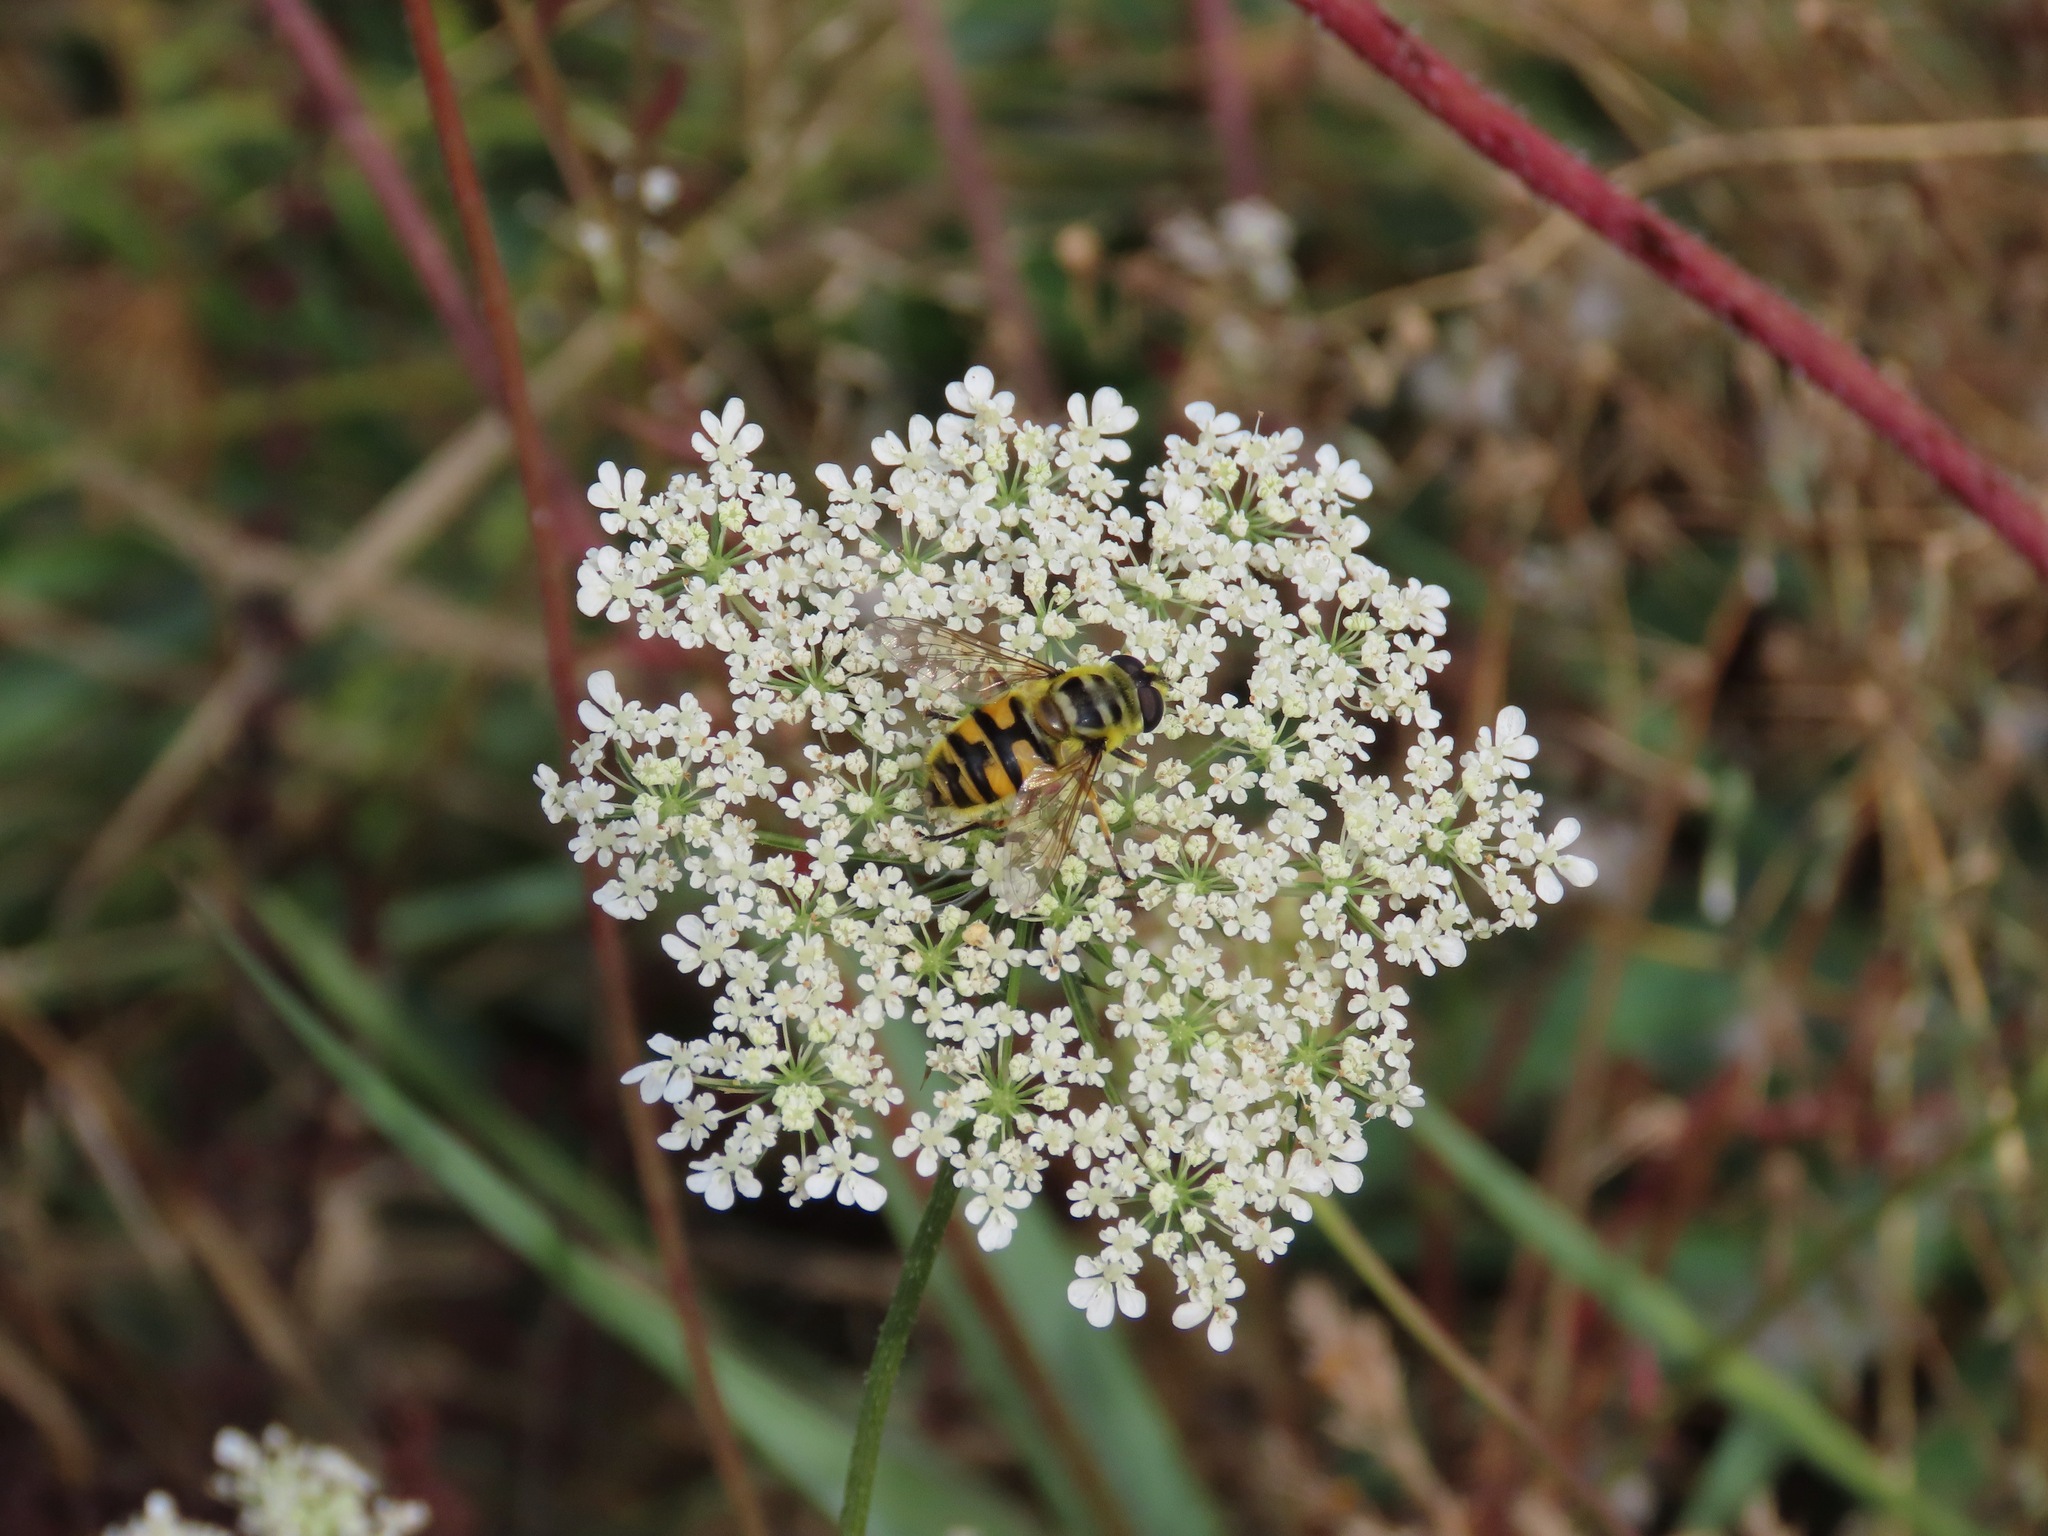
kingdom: Animalia
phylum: Arthropoda
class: Insecta
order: Diptera
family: Syrphidae
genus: Myathropa
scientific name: Myathropa florea
